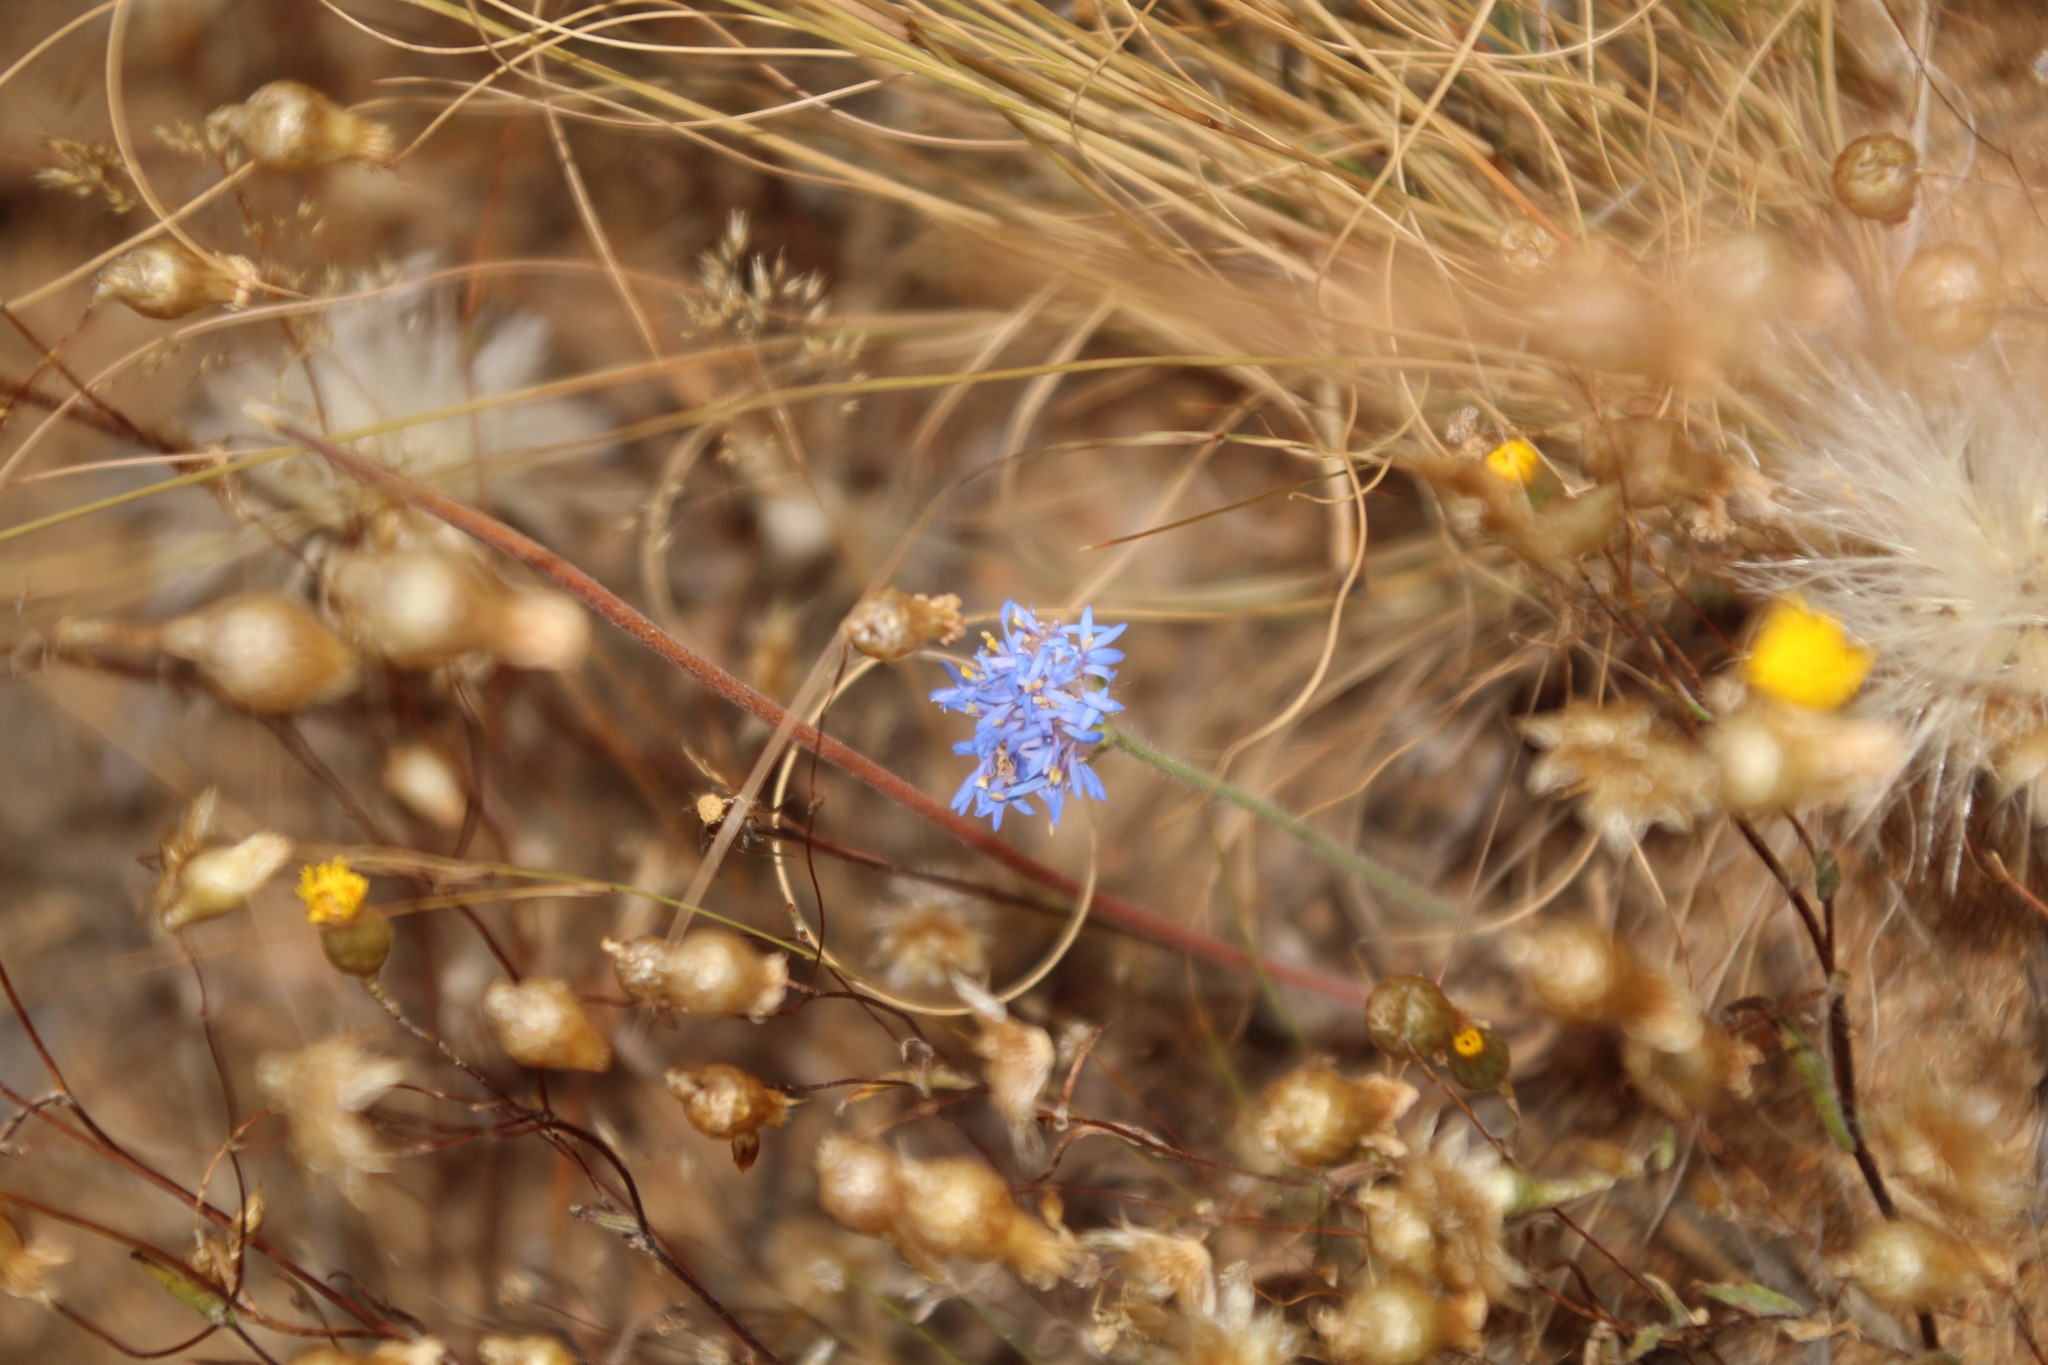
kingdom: Plantae
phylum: Tracheophyta
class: Magnoliopsida
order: Asterales
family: Goodeniaceae
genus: Brunonia
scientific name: Brunonia australis
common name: Blue pincushion
